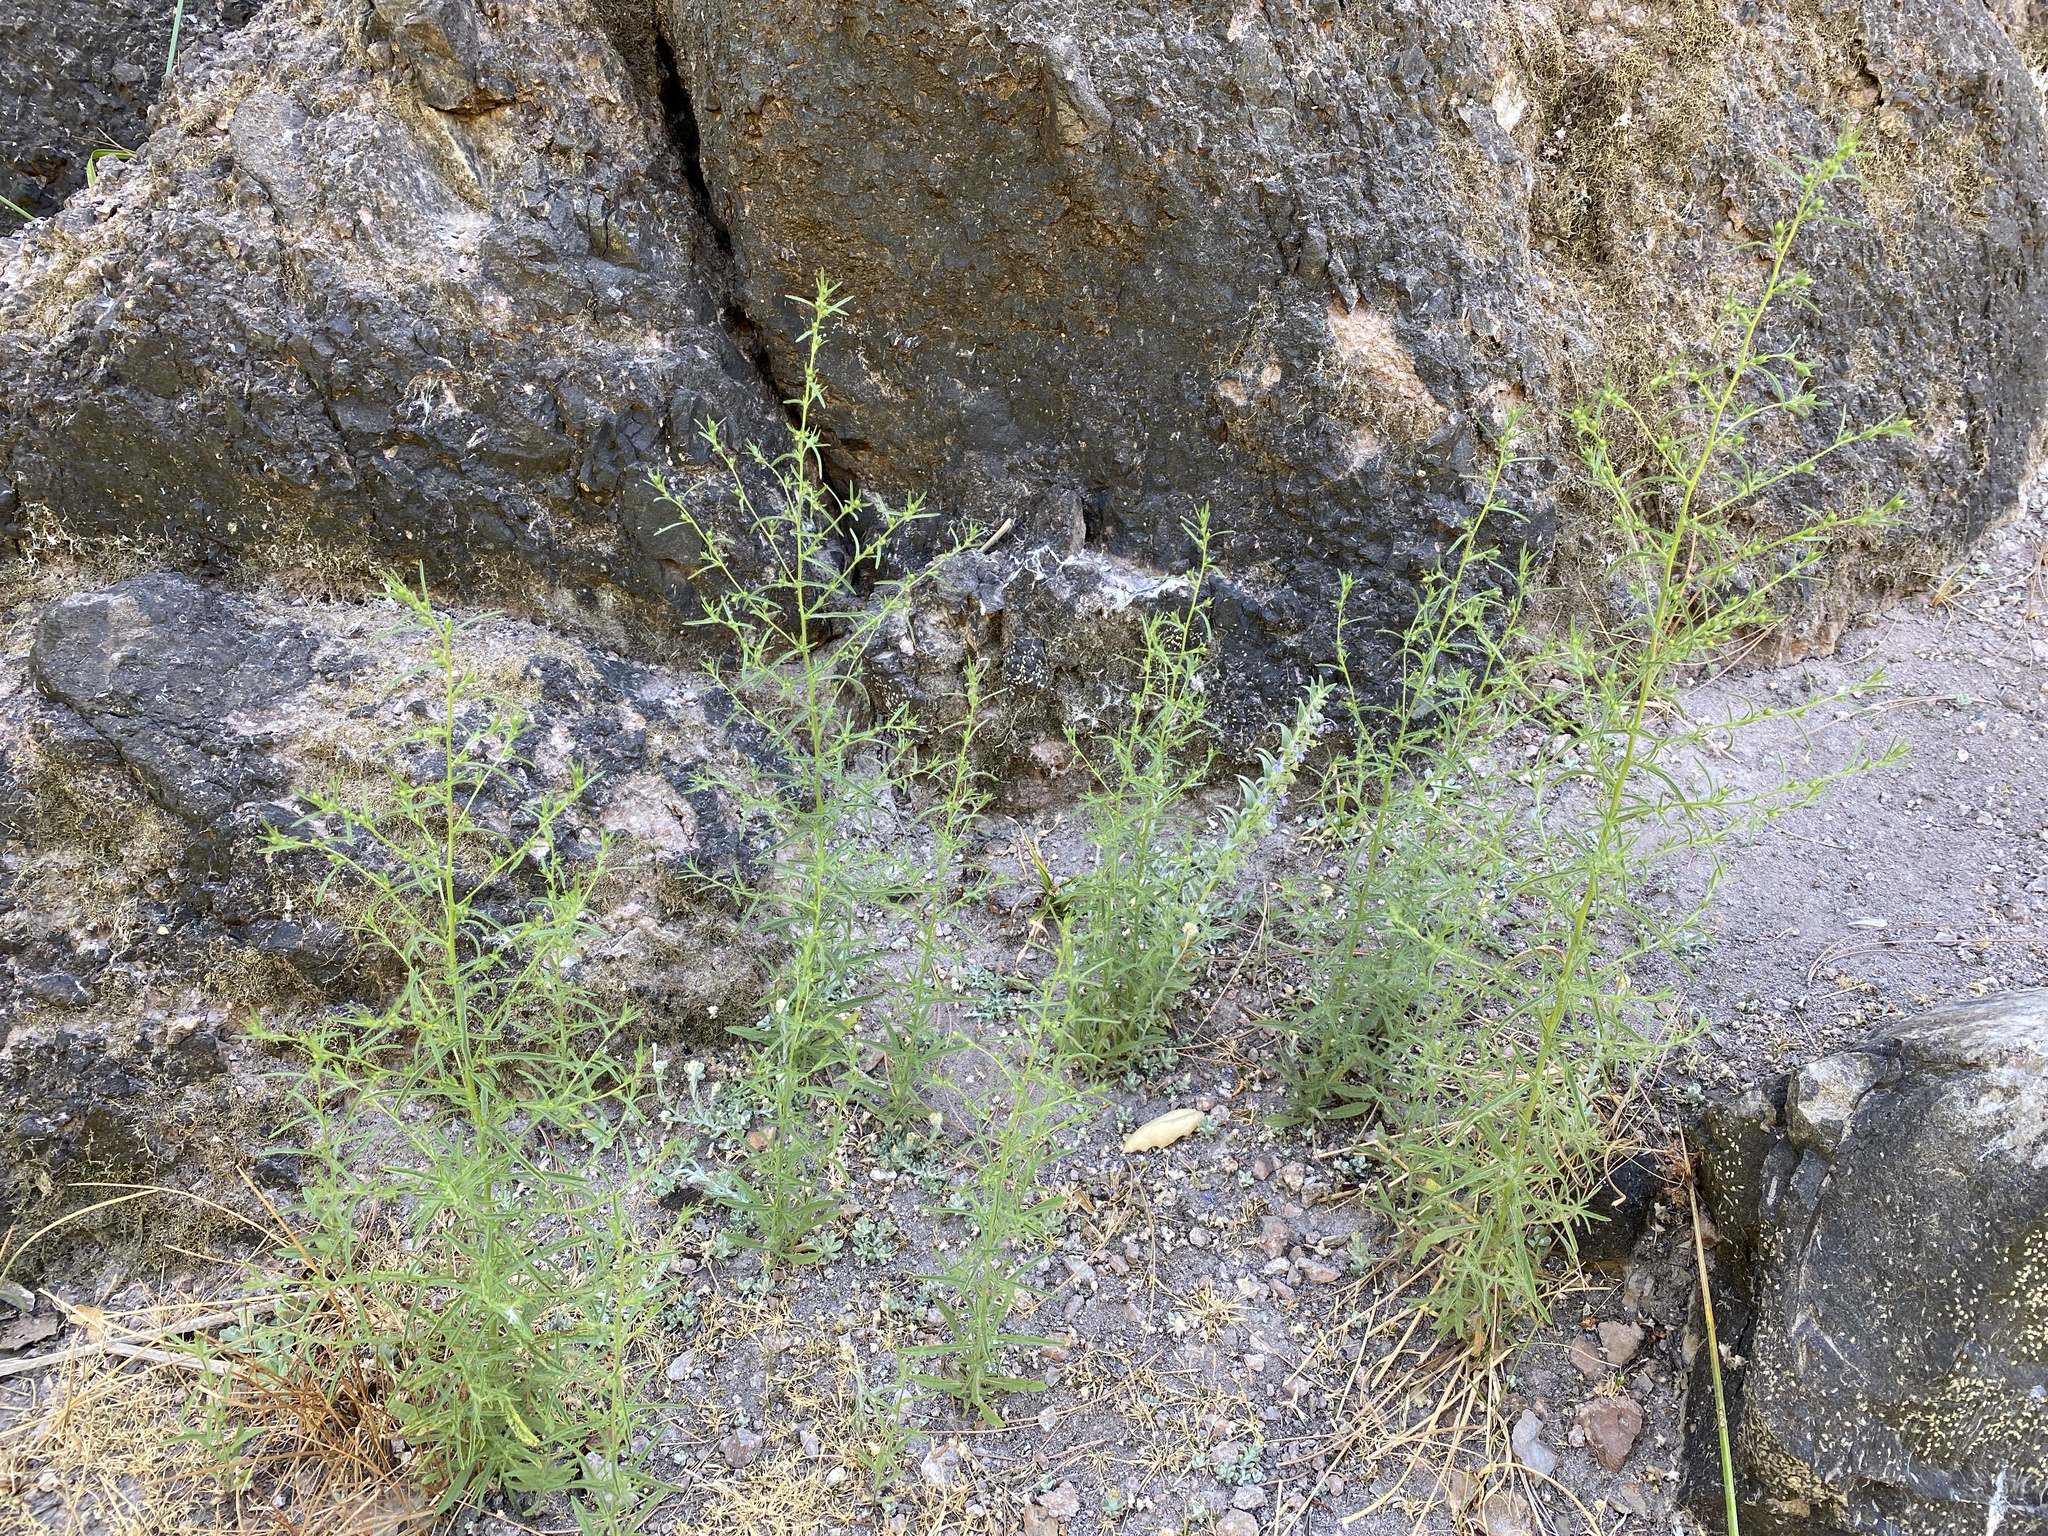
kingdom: Plantae
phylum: Tracheophyta
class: Magnoliopsida
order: Asterales
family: Asteraceae
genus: Dittrichia
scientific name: Dittrichia graveolens
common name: Stinking fleabane
